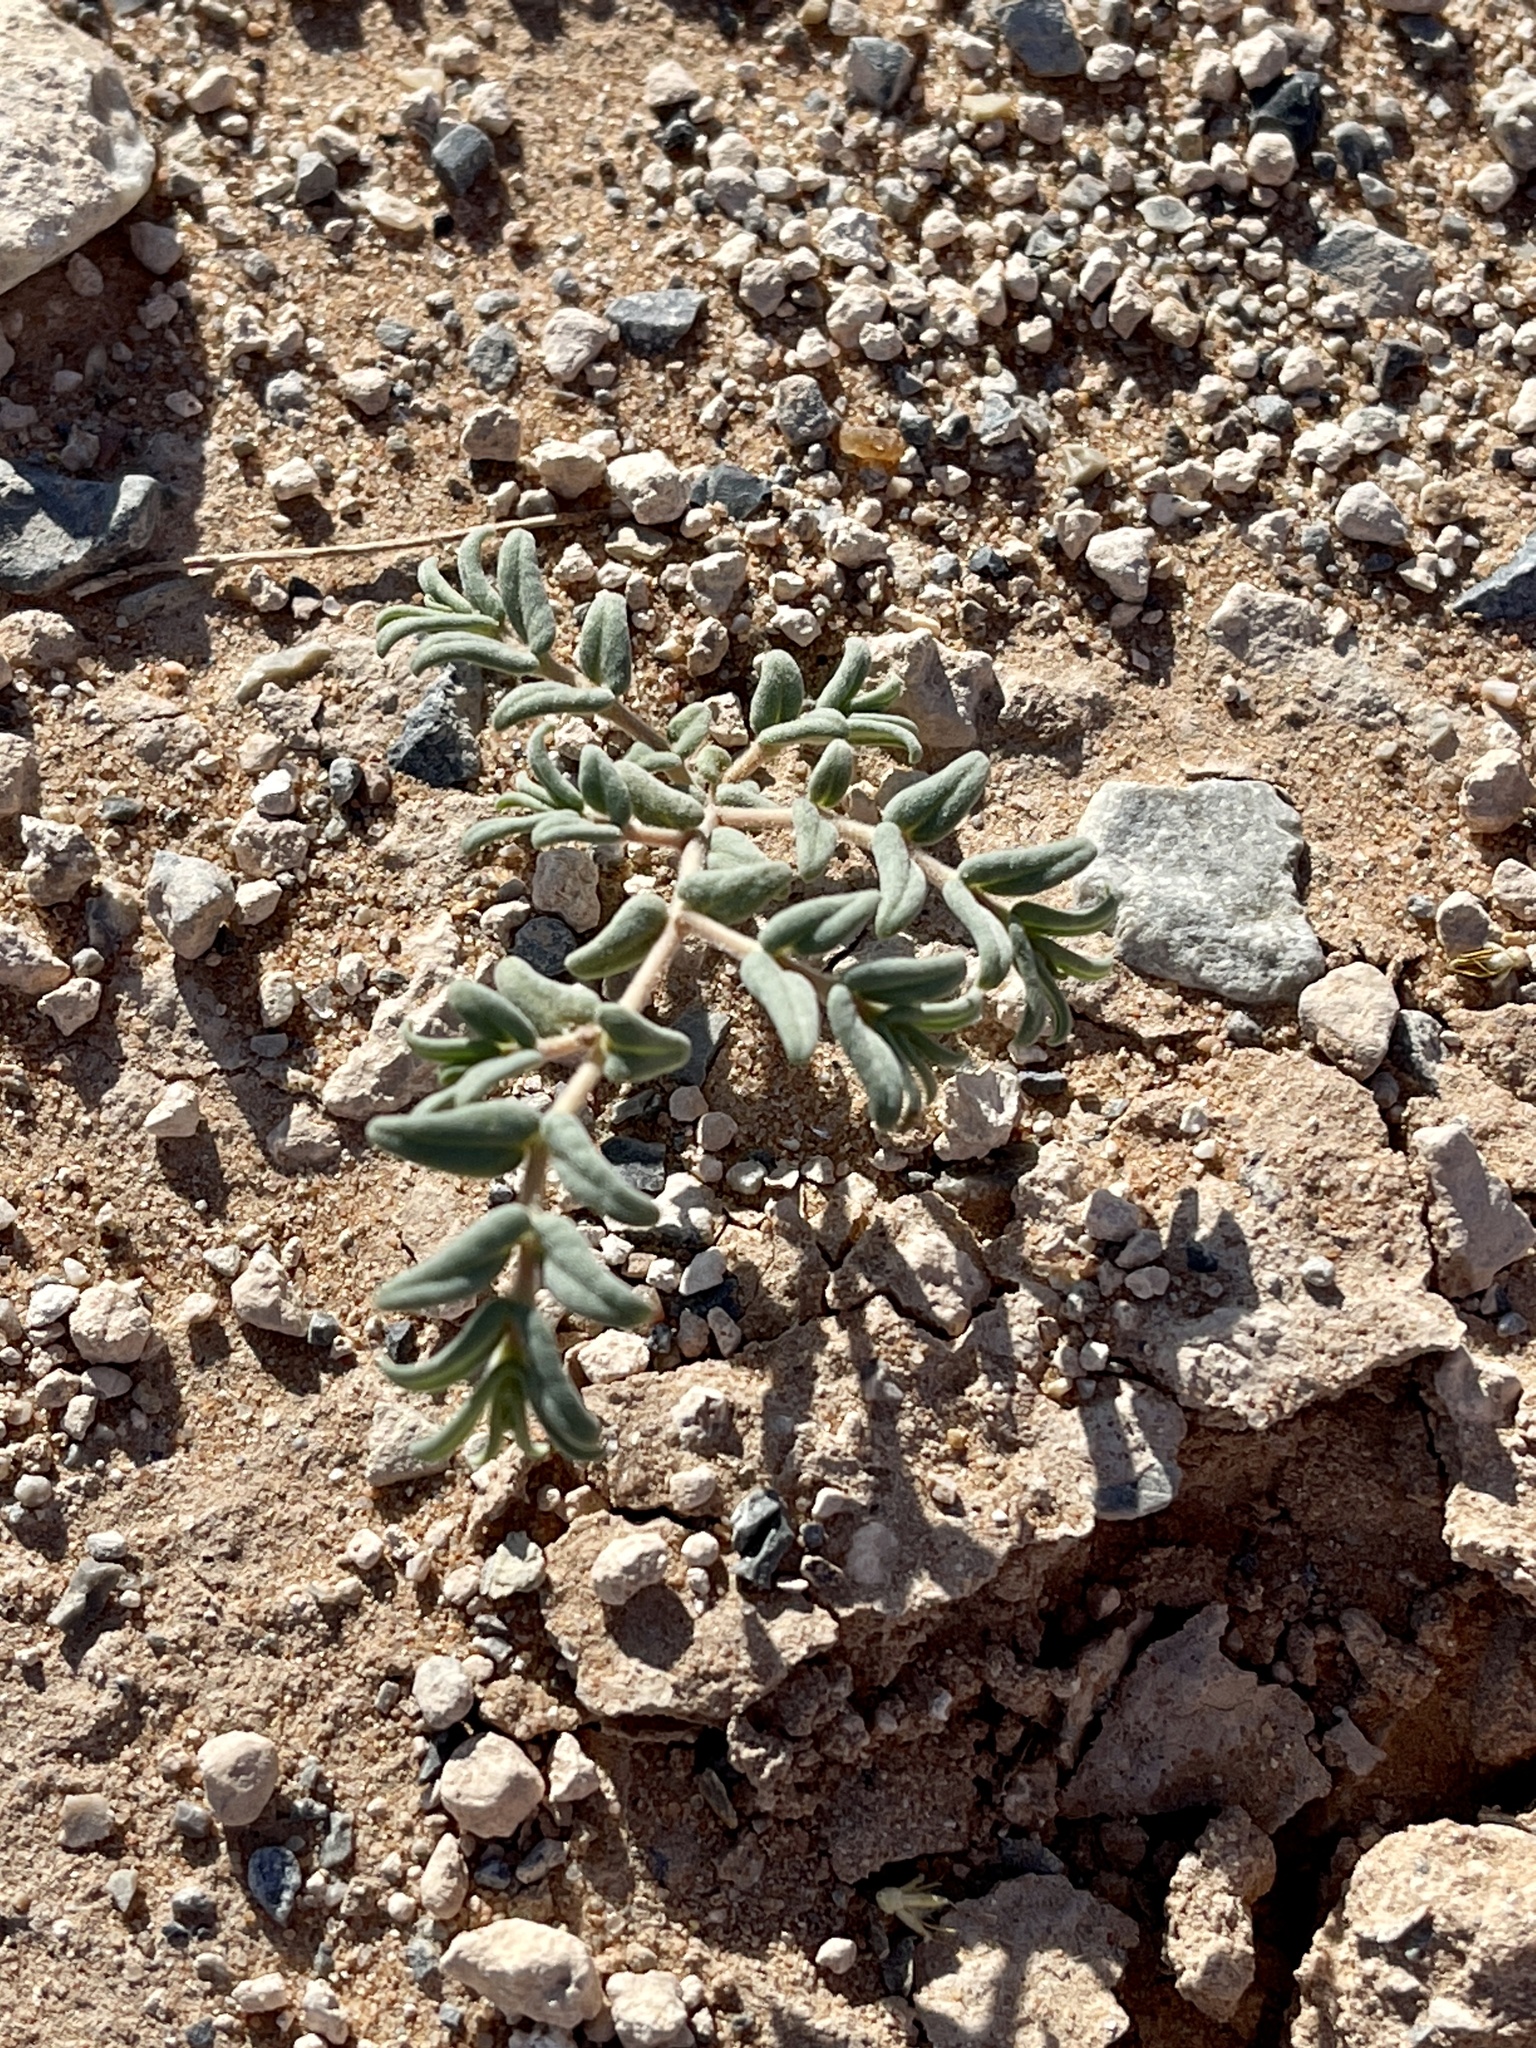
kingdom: Plantae
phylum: Tracheophyta
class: Magnoliopsida
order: Malpighiales
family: Euphorbiaceae
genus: Euphorbia
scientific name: Euphorbia lata
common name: Hoary euphorbia
